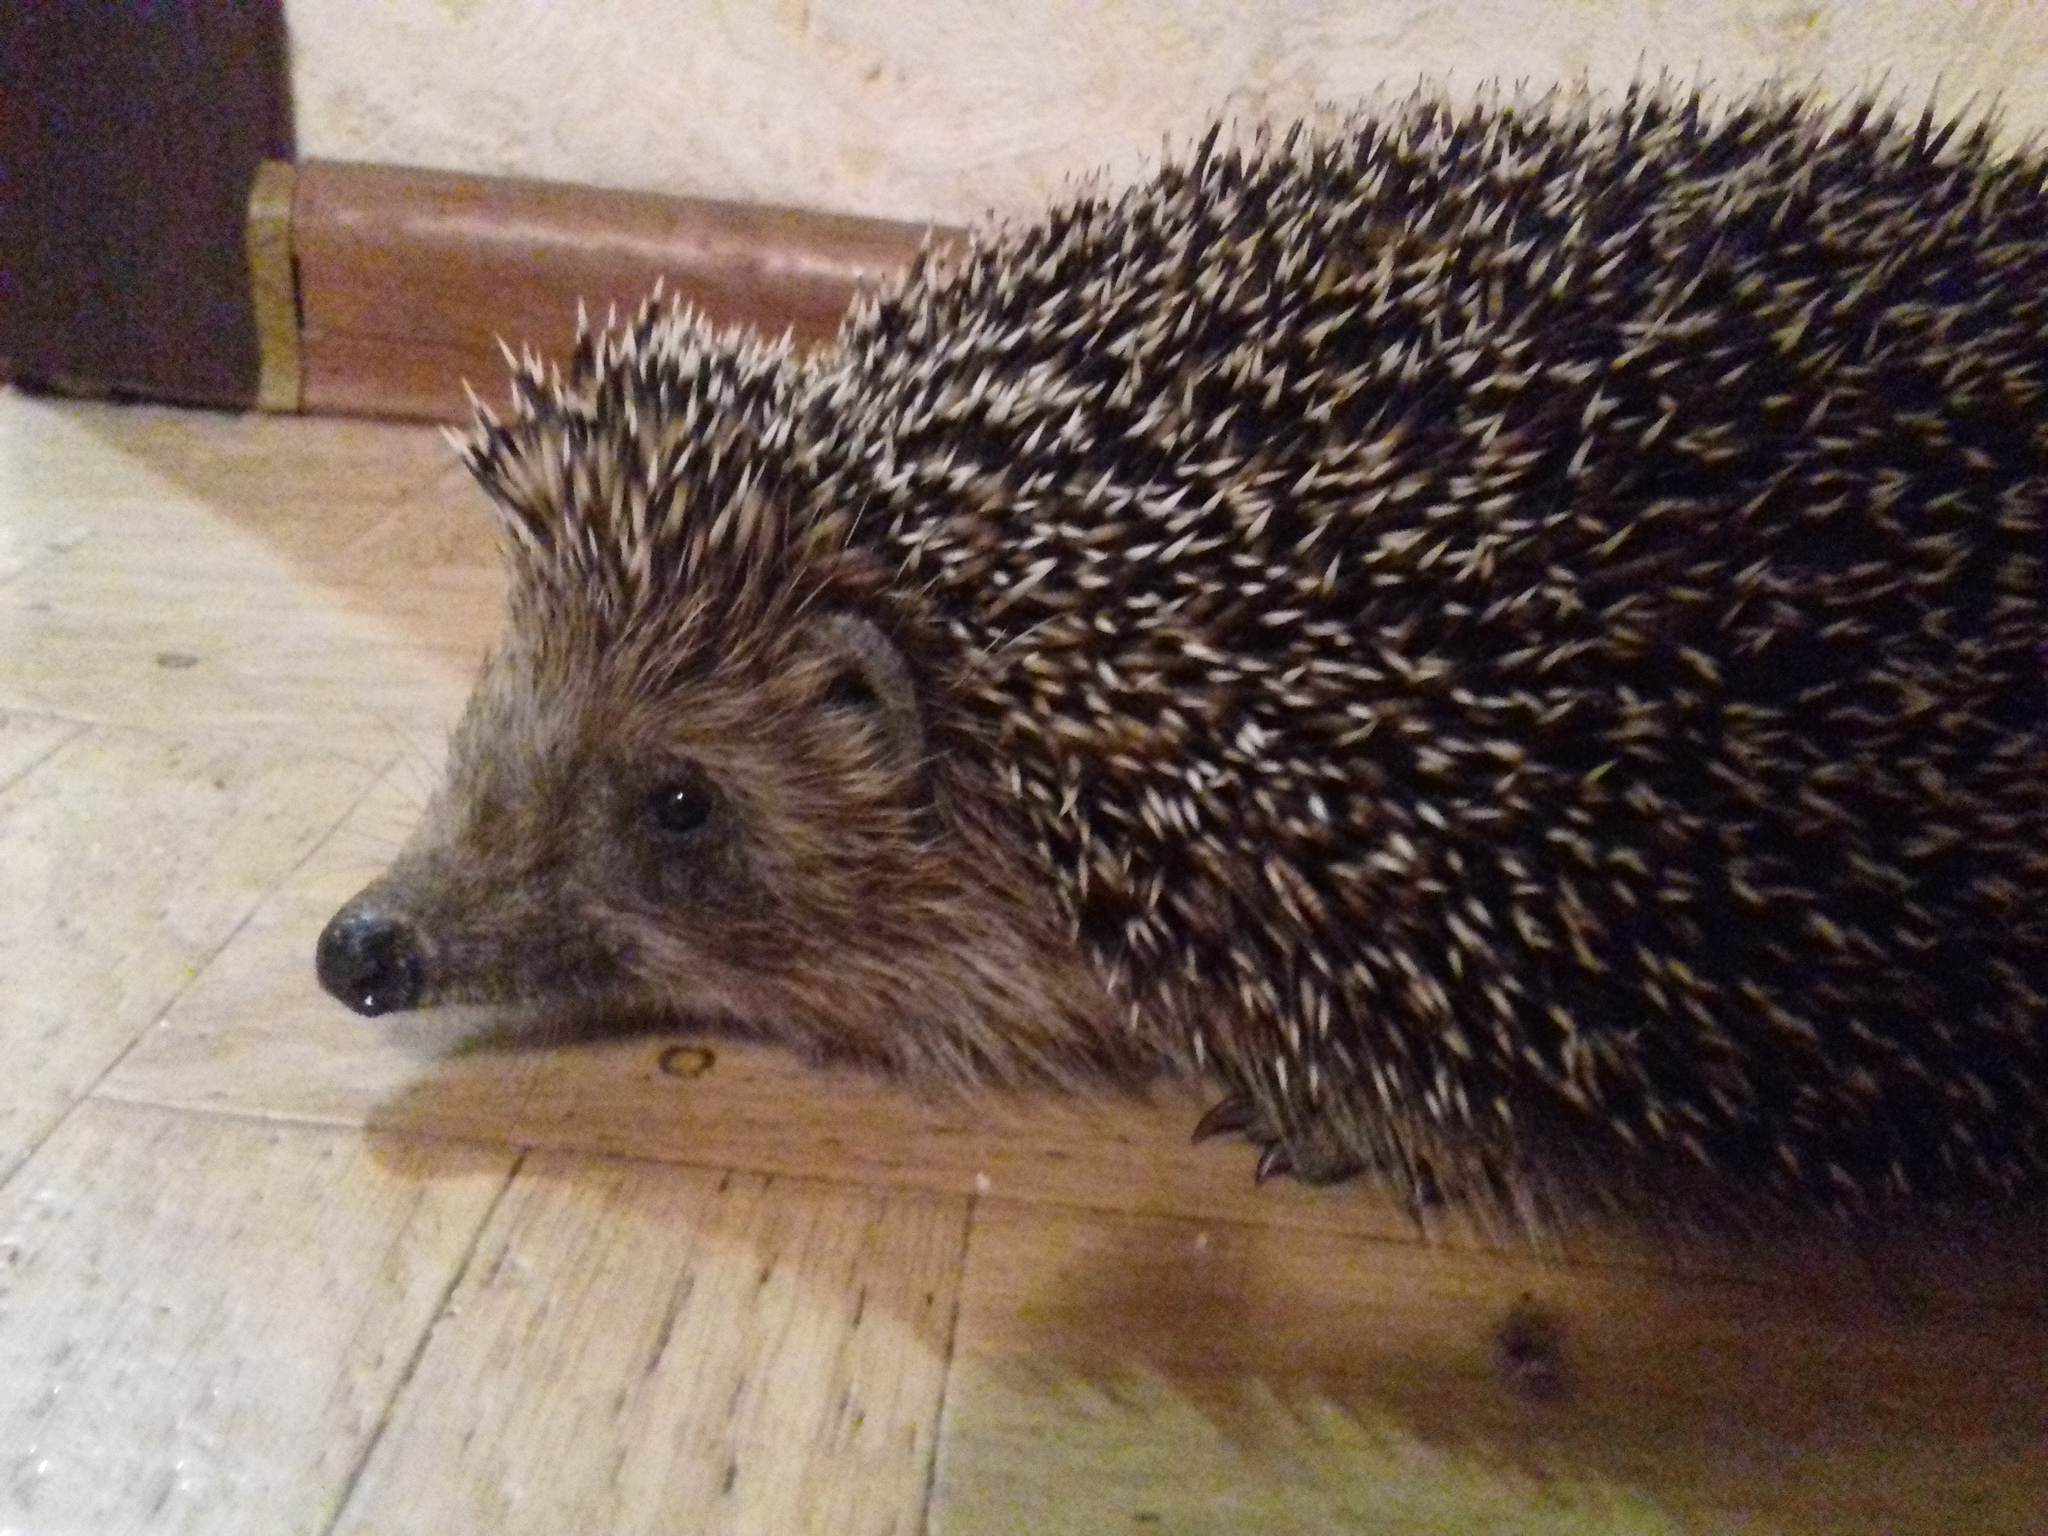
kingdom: Animalia
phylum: Chordata
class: Mammalia
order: Erinaceomorpha
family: Erinaceidae
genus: Erinaceus
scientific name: Erinaceus roumanicus
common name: Northern white-breasted hedgehog
